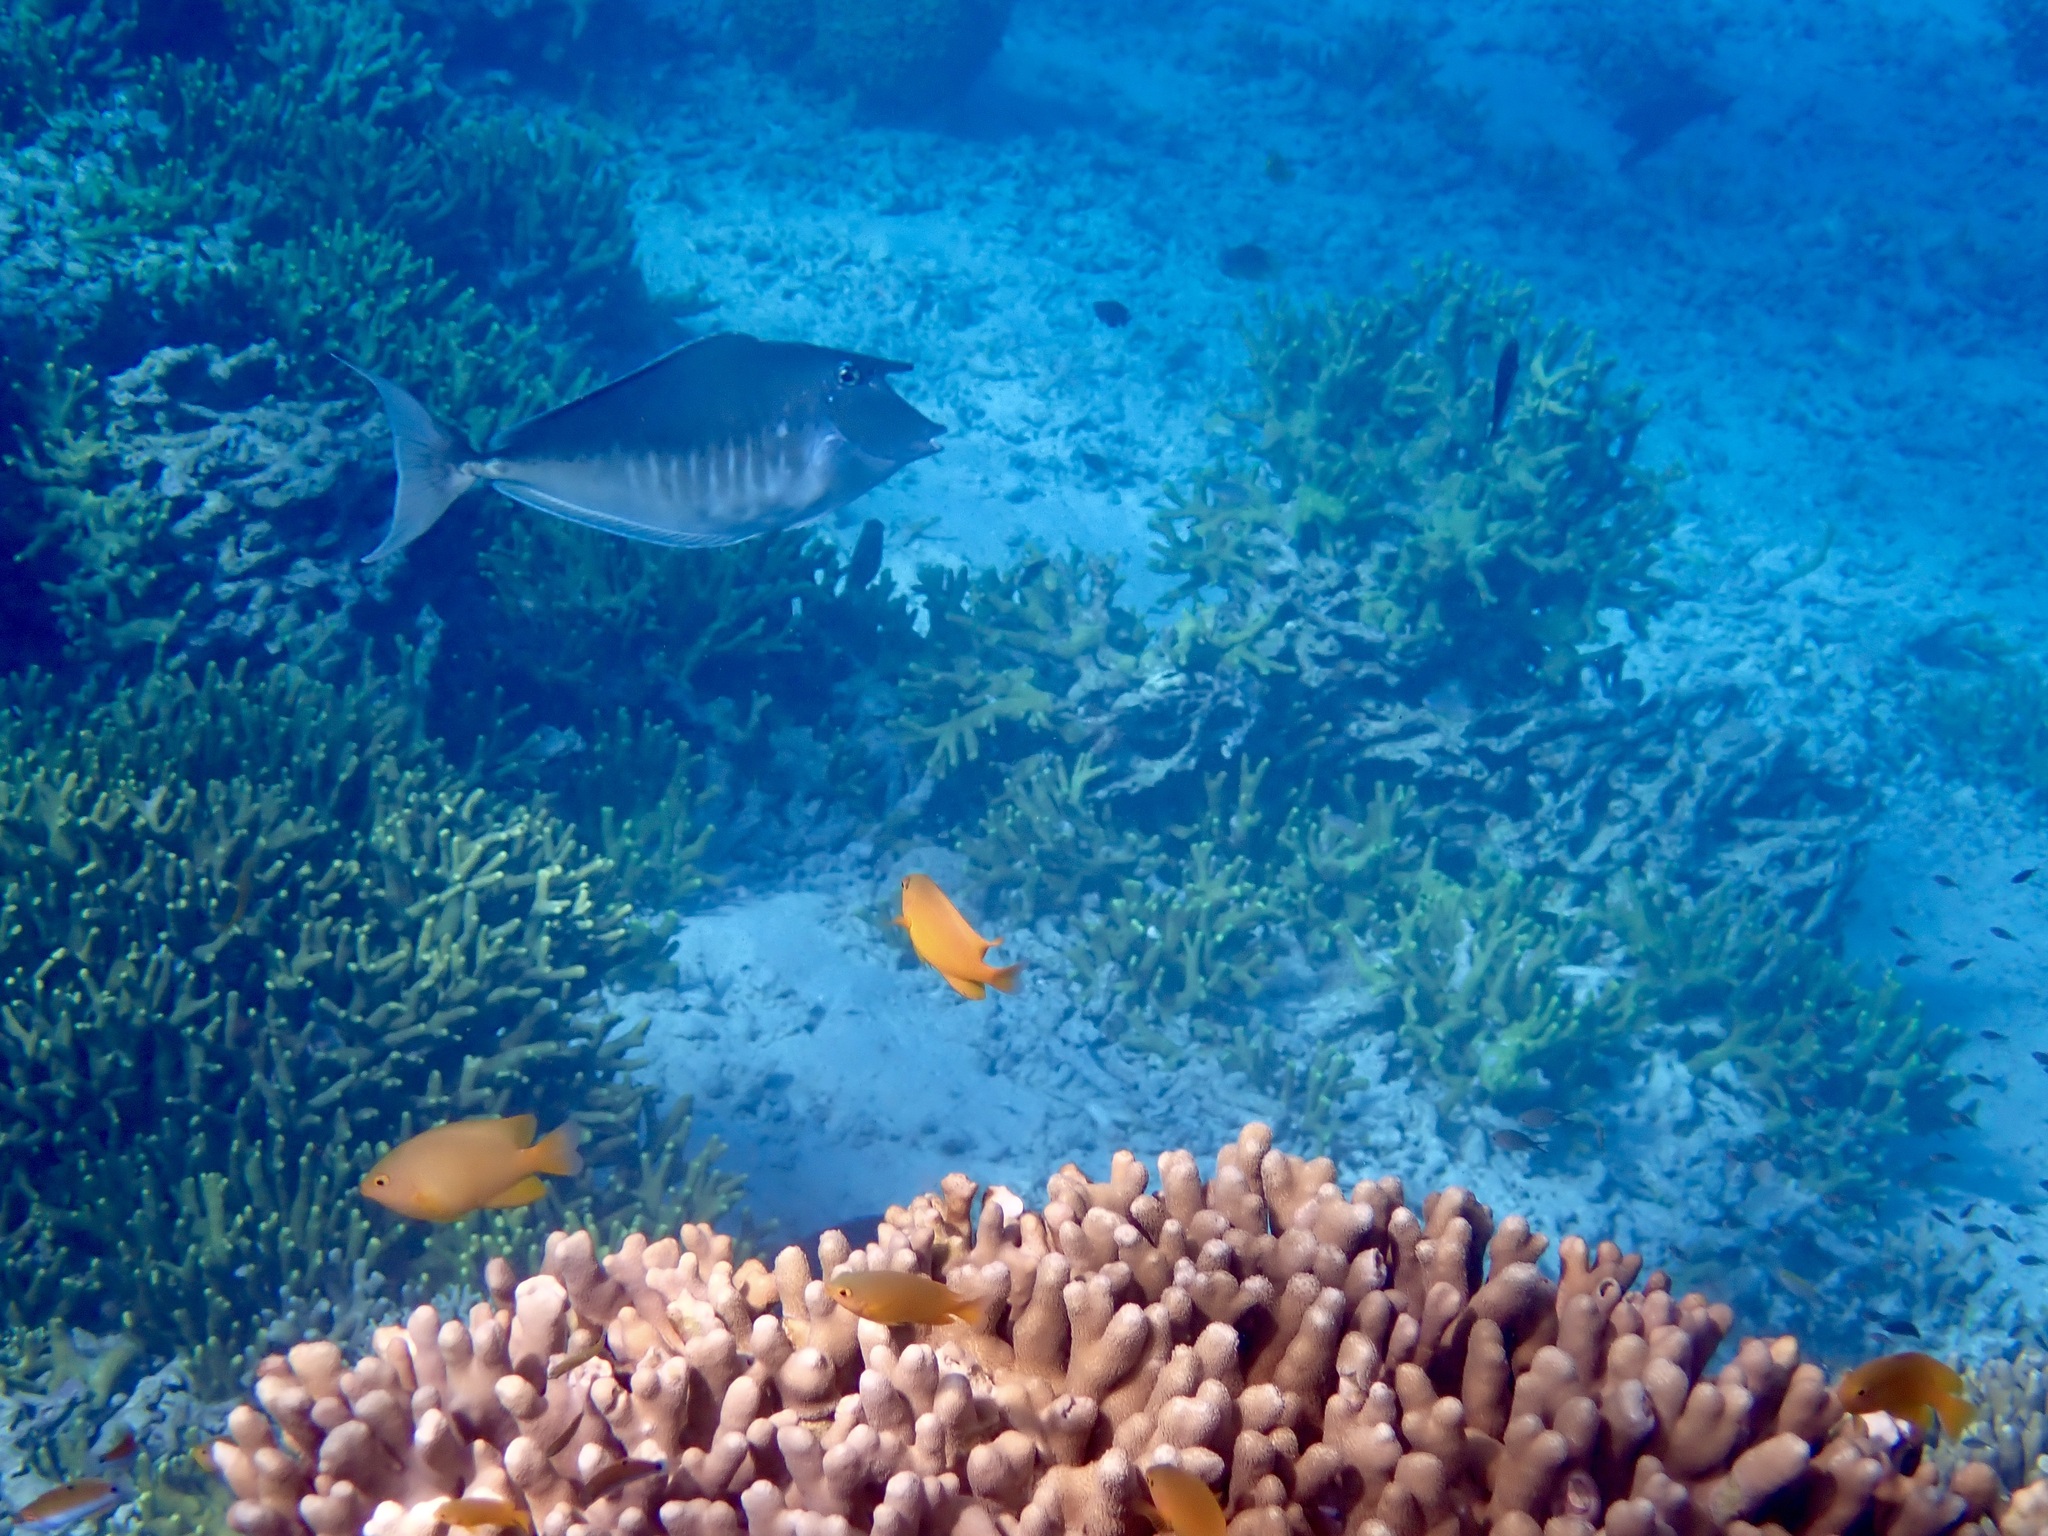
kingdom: Animalia
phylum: Chordata
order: Perciformes
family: Acanthuridae
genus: Naso
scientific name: Naso brachycentron
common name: Humpback unicornfish
